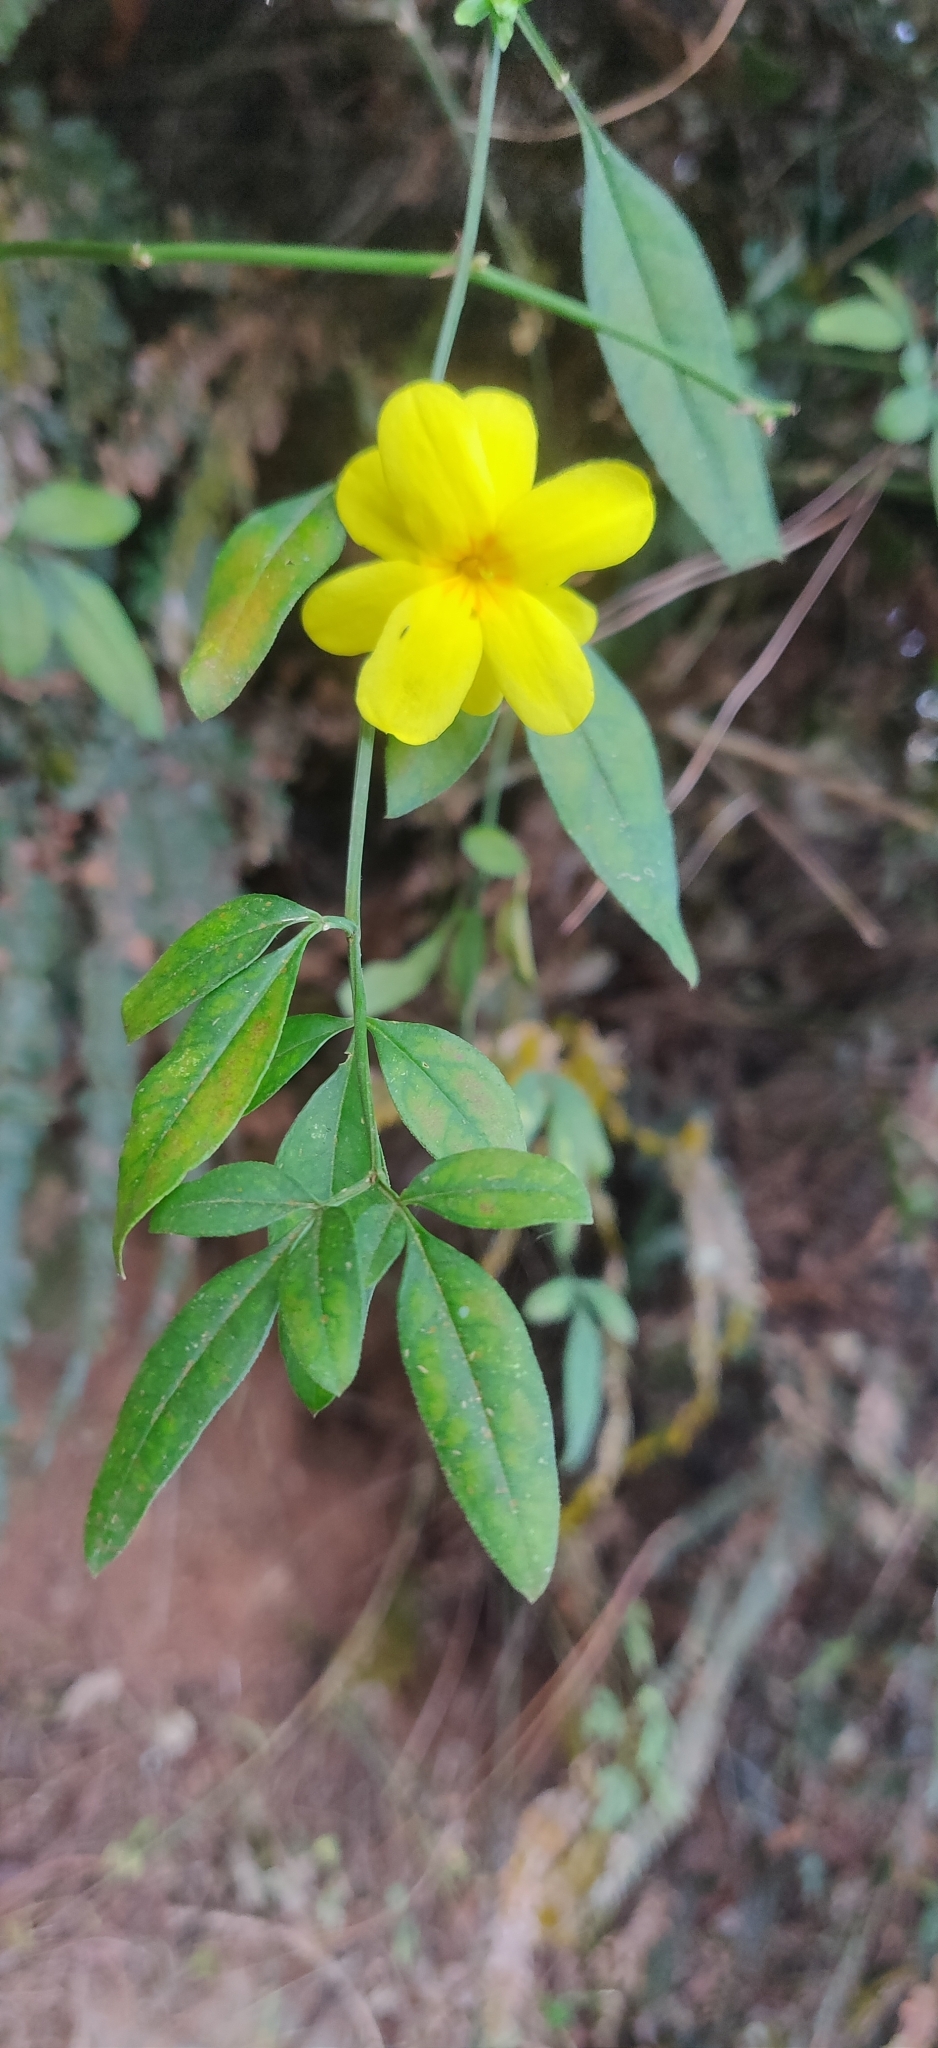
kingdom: Plantae
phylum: Tracheophyta
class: Magnoliopsida
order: Lamiales
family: Oleaceae
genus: Jasminum
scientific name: Jasminum mesnyi
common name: Japanese jasmine
